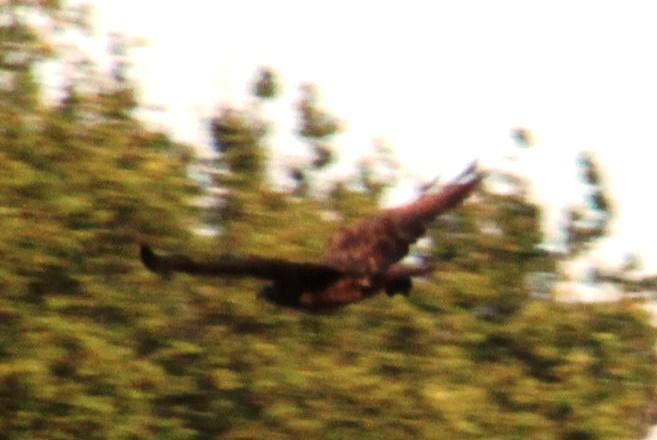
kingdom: Animalia
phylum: Chordata
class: Aves
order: Accipitriformes
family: Accipitridae
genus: Buteo
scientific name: Buteo buteo
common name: Common buzzard
